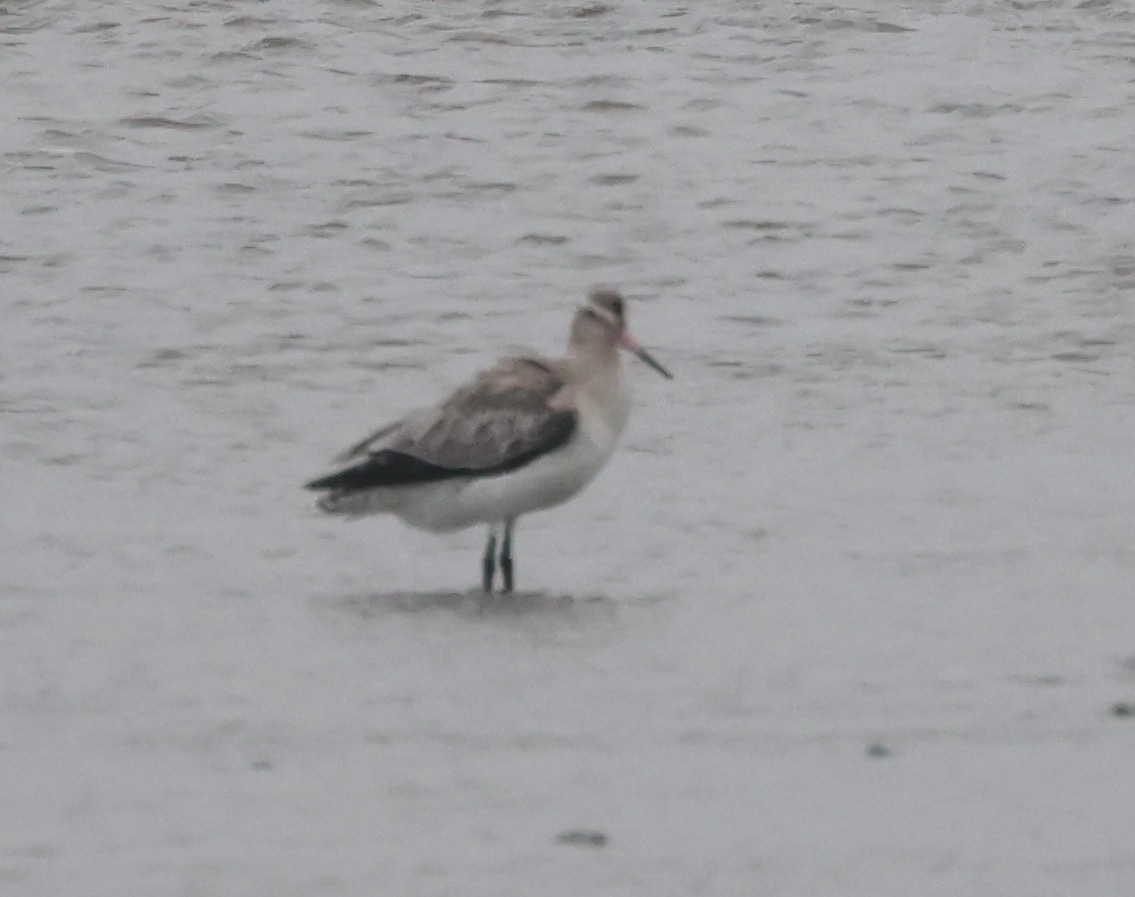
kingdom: Animalia
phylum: Chordata
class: Aves
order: Charadriiformes
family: Scolopacidae
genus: Limosa
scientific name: Limosa lapponica
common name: Bar-tailed godwit
